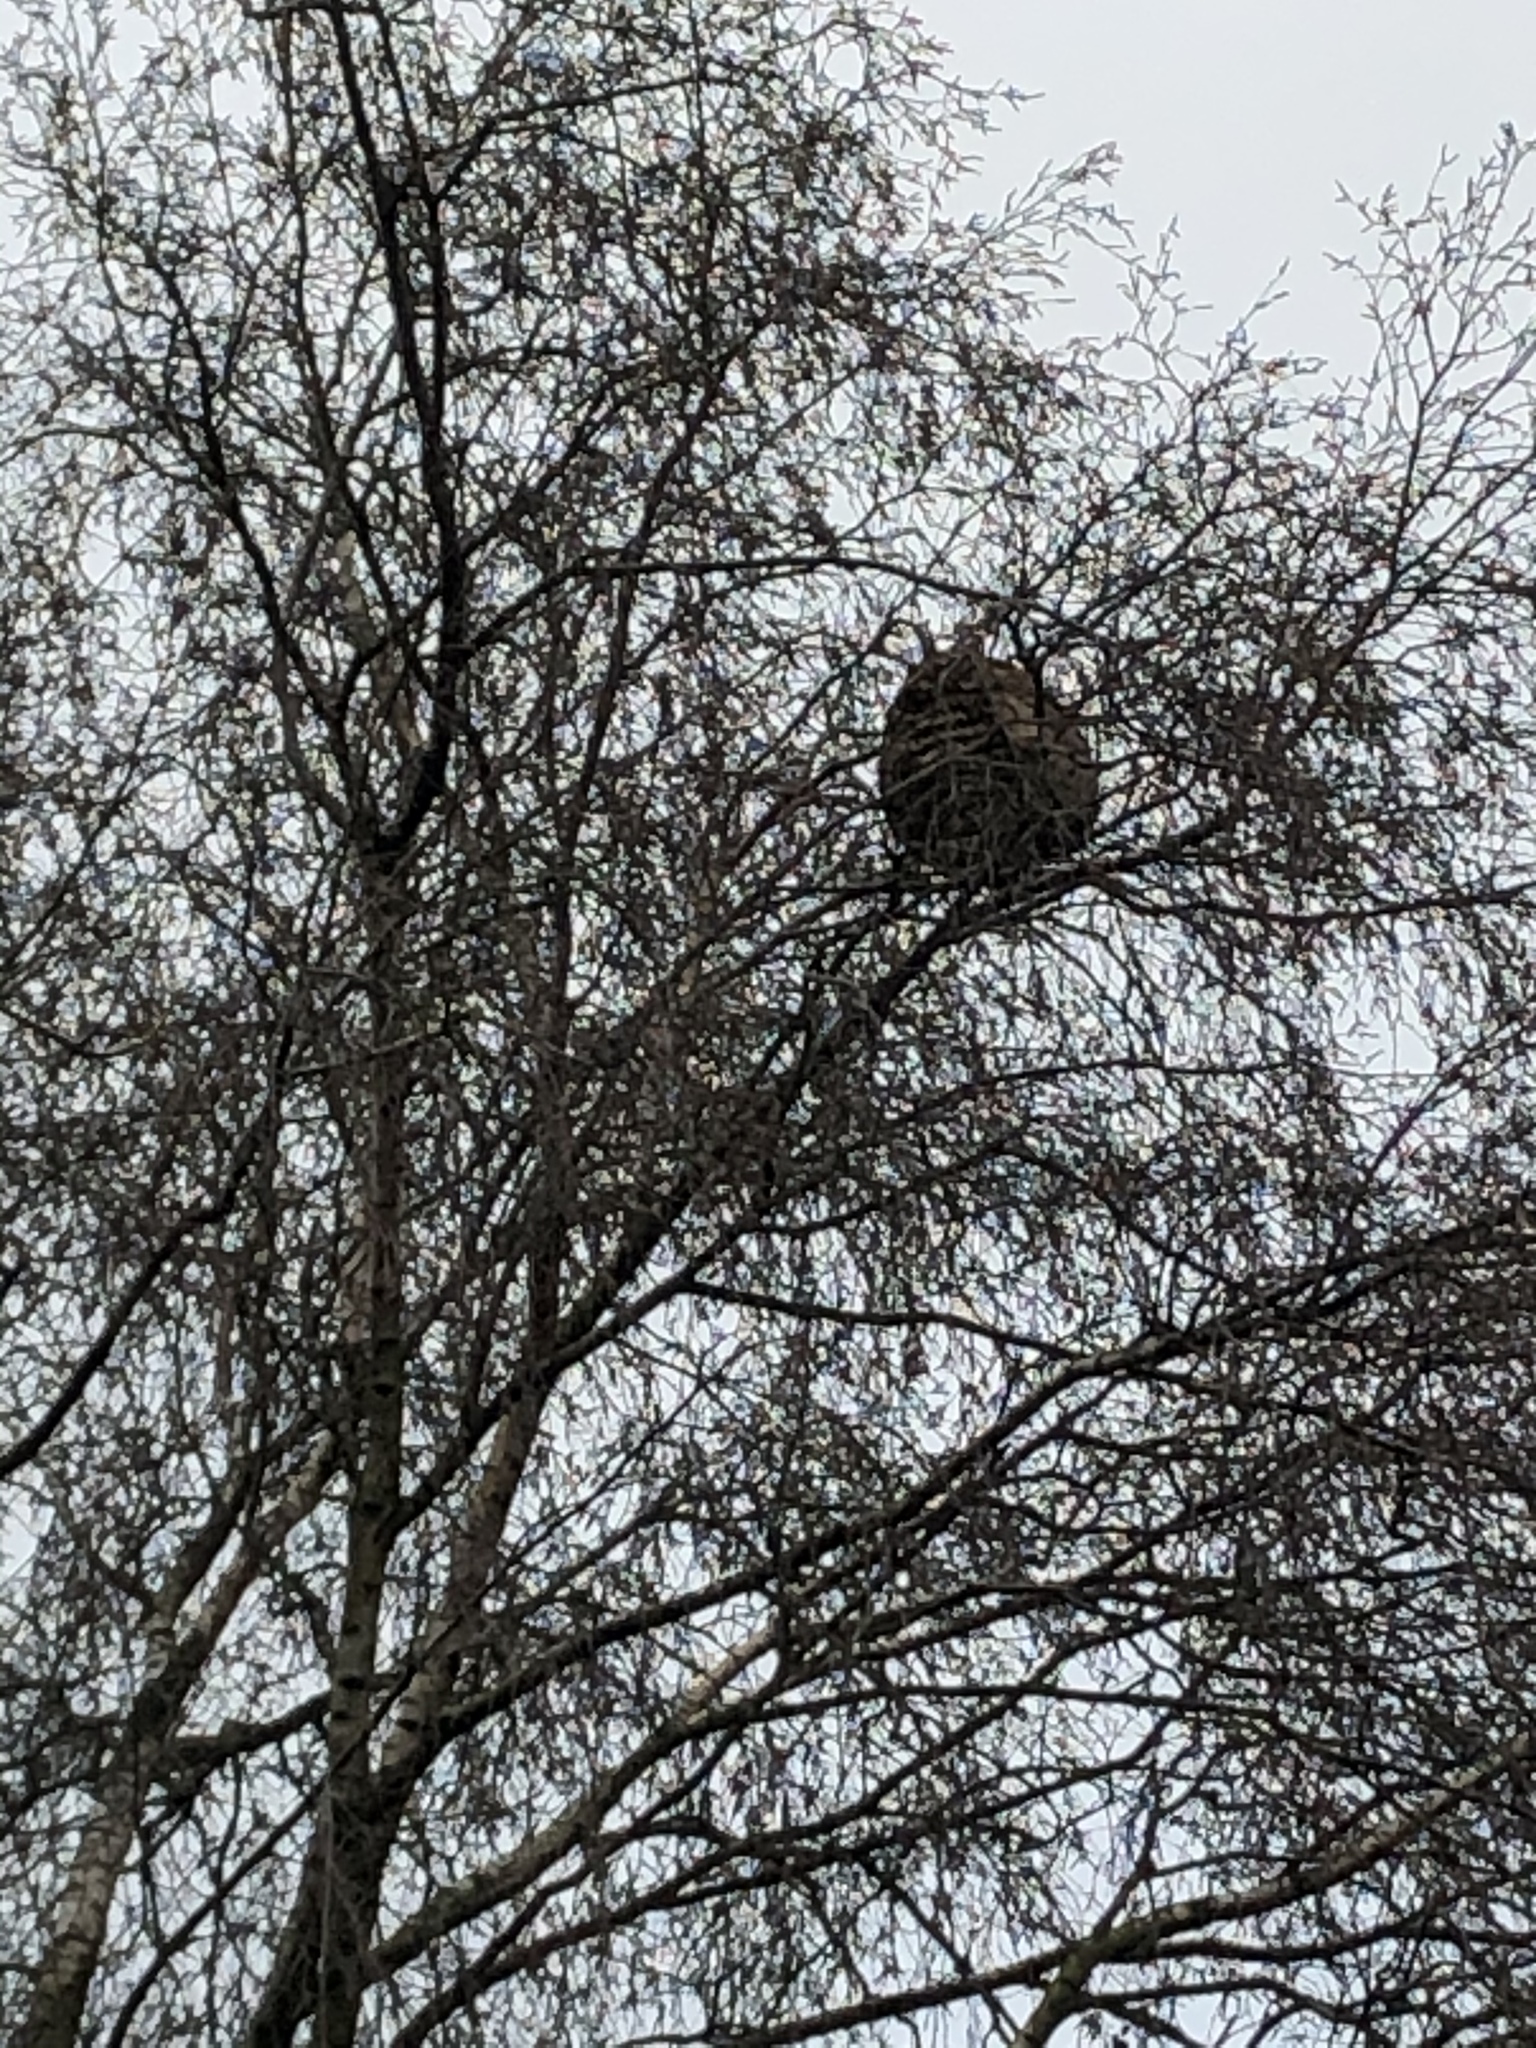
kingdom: Animalia
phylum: Arthropoda
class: Insecta
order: Hymenoptera
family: Vespidae
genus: Vespa
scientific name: Vespa velutina
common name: Asian hornet
